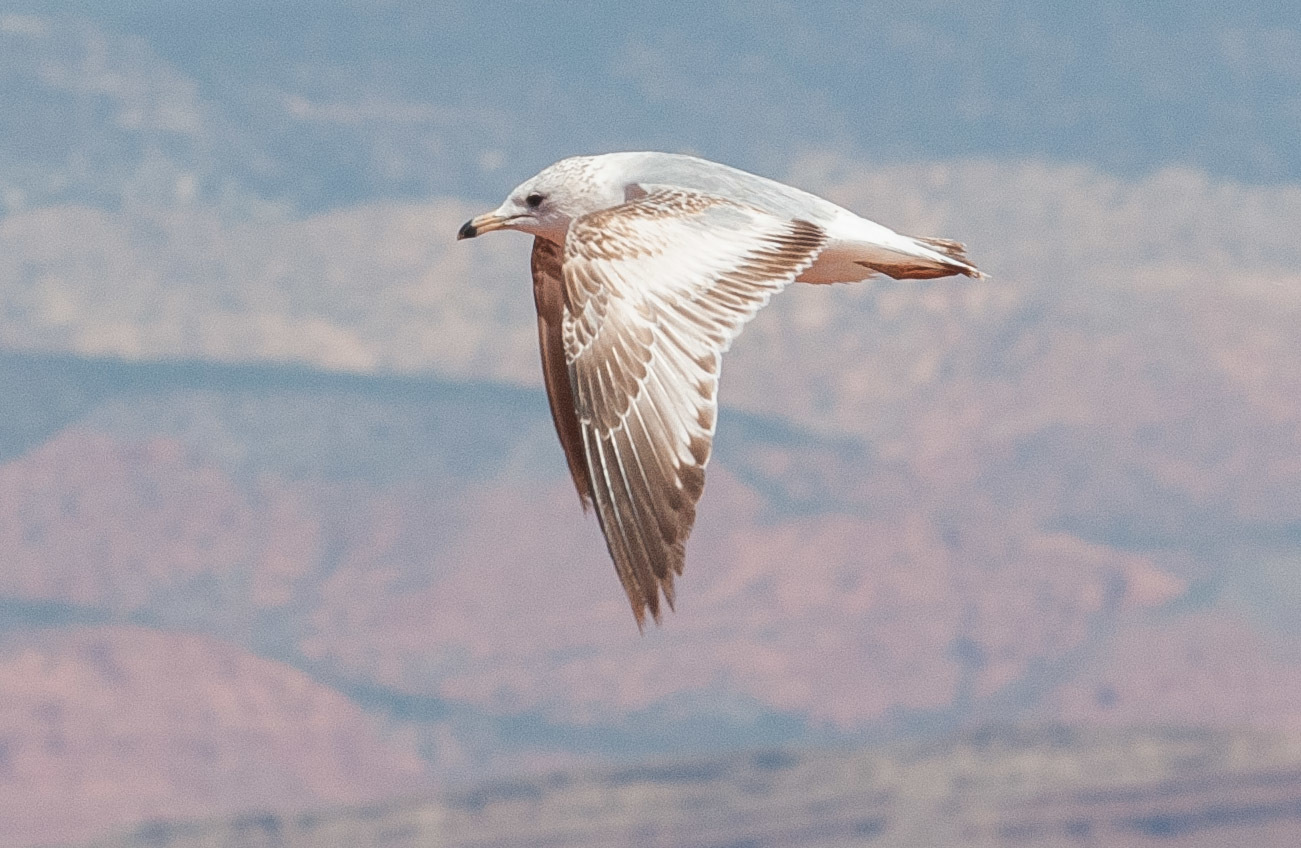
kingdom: Animalia
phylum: Chordata
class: Aves
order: Charadriiformes
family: Laridae
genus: Larus
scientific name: Larus delawarensis
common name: Ring-billed gull
